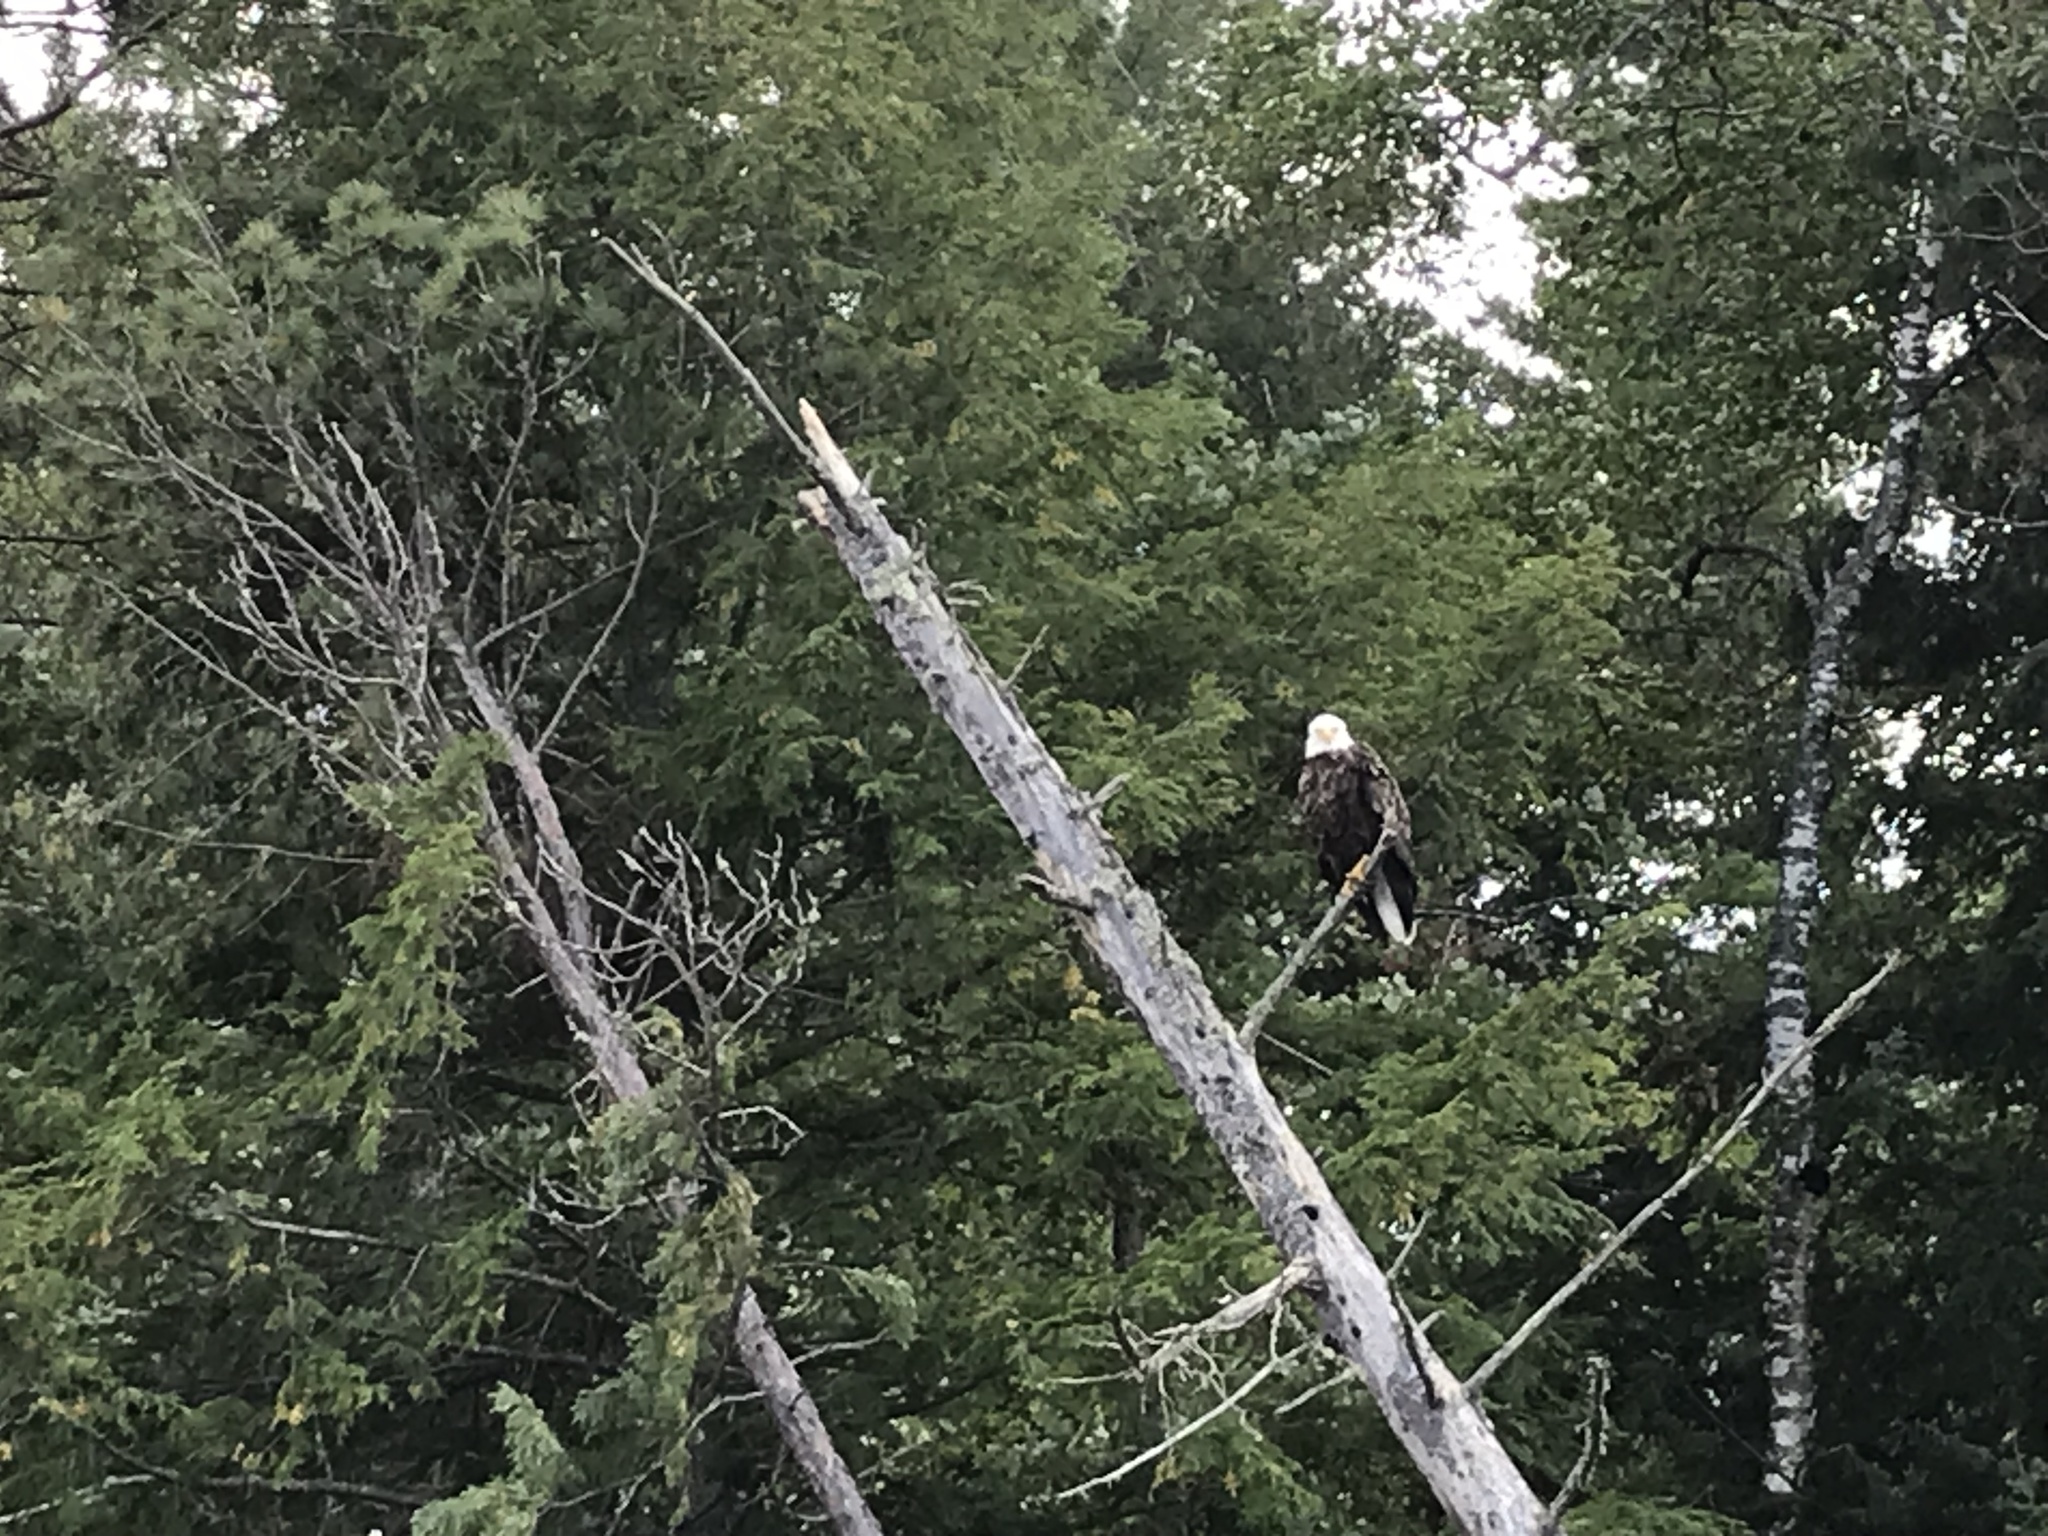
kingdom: Animalia
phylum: Chordata
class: Aves
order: Accipitriformes
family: Accipitridae
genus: Haliaeetus
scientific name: Haliaeetus leucocephalus
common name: Bald eagle
